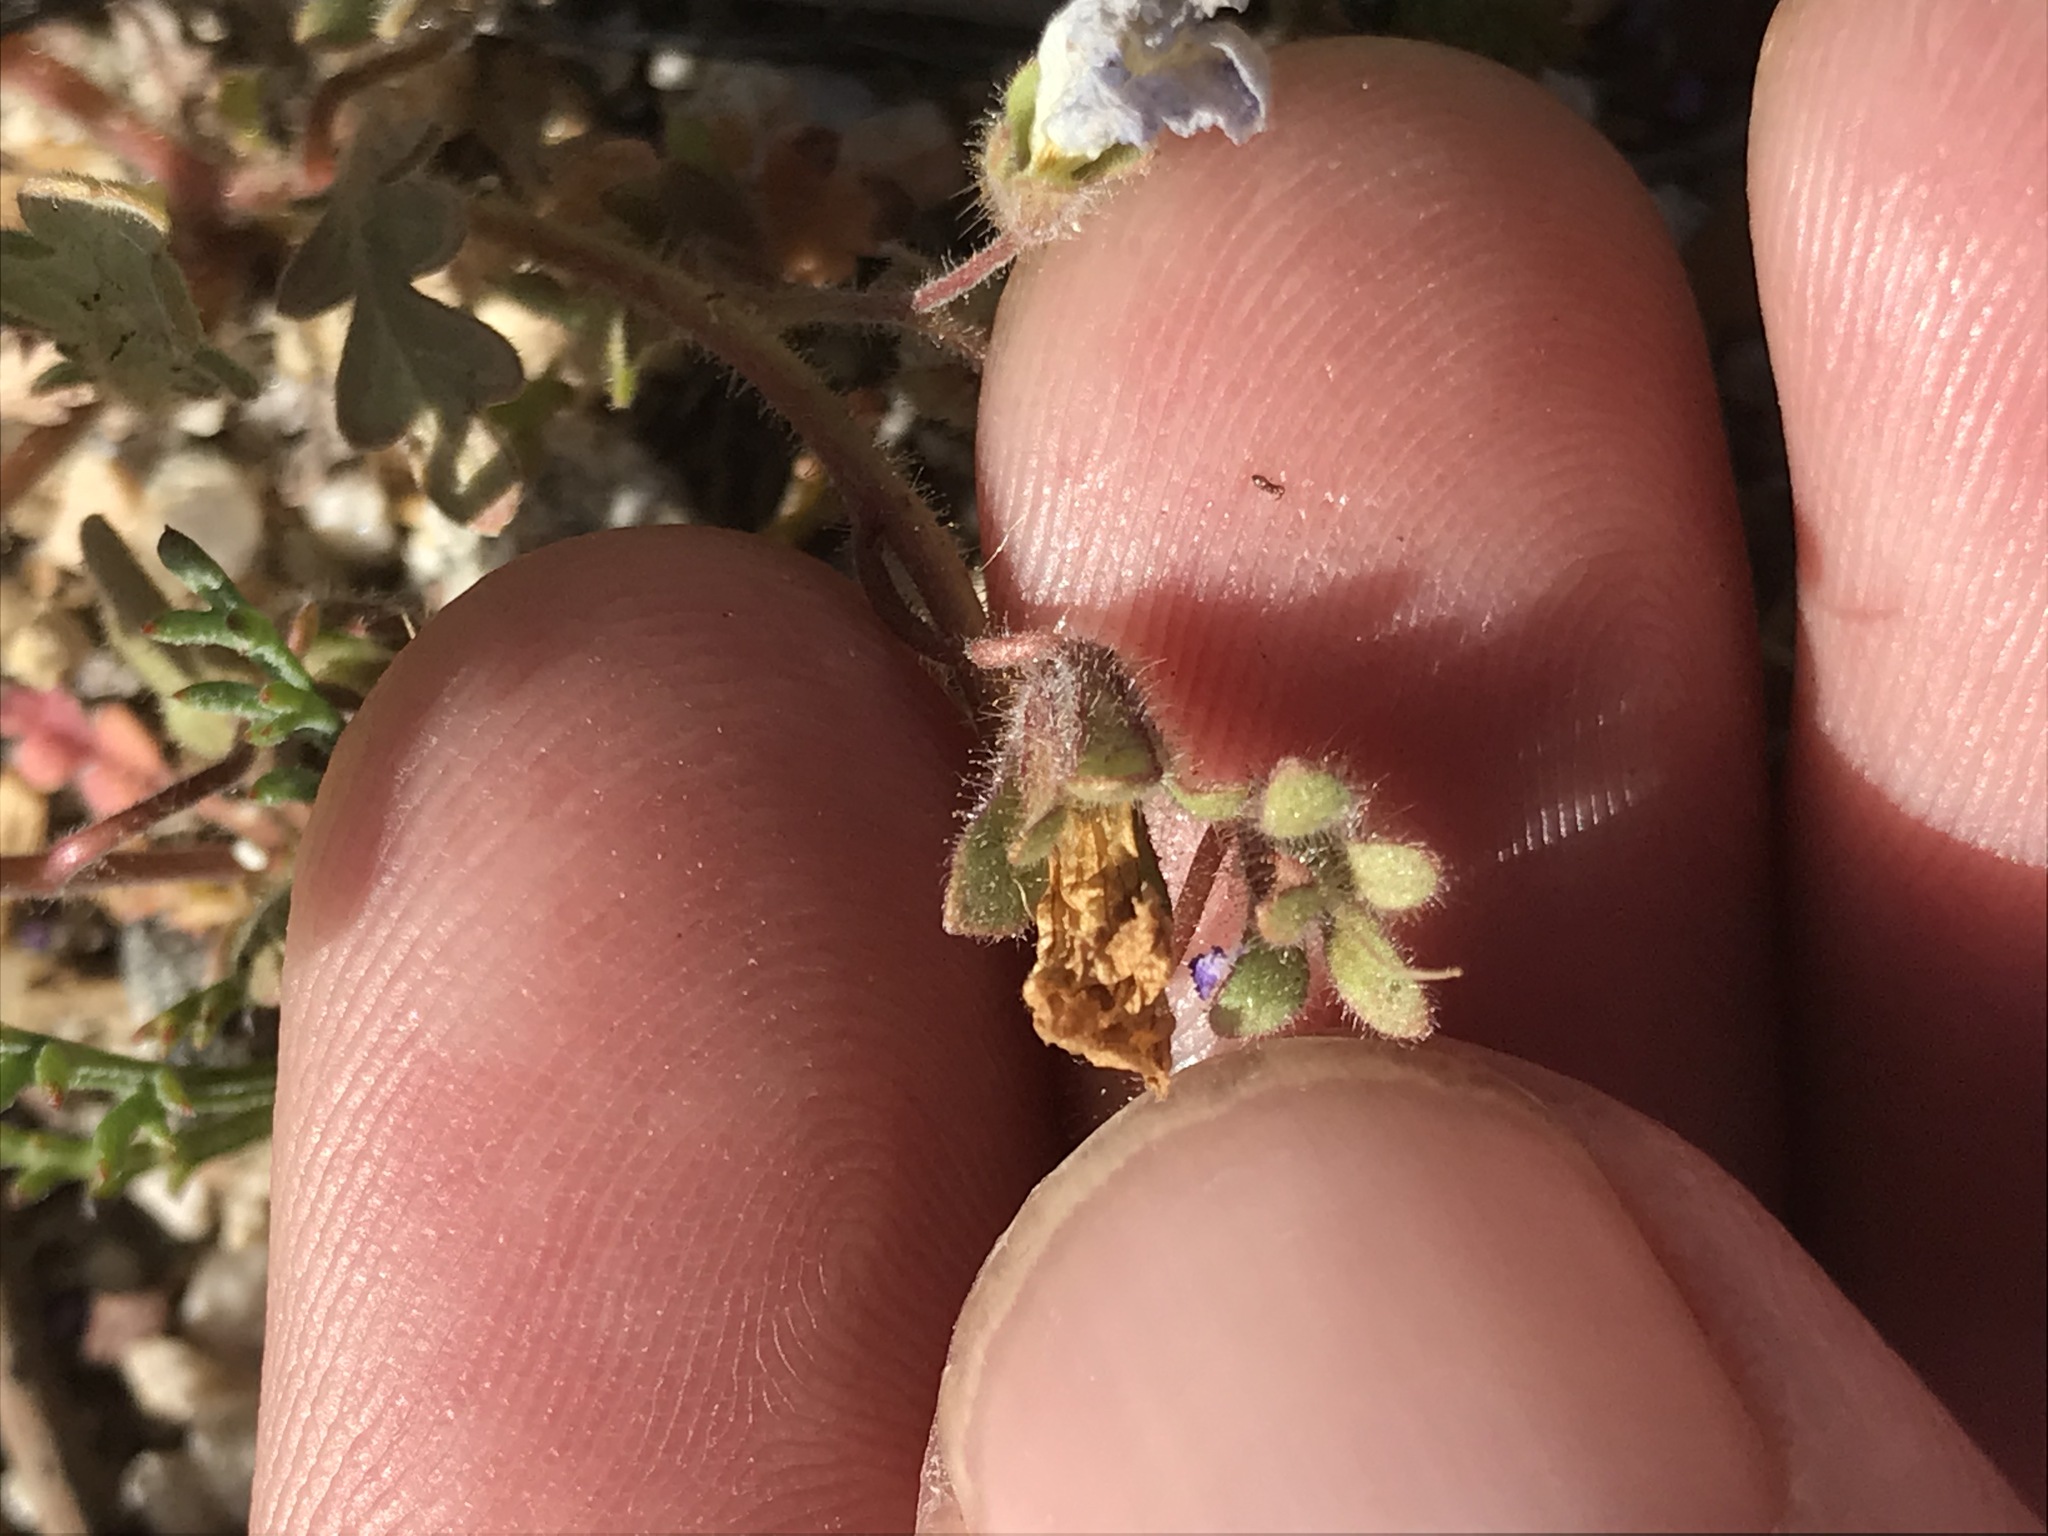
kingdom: Plantae
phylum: Tracheophyta
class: Magnoliopsida
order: Boraginales
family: Hydrophyllaceae
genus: Phacelia
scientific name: Phacelia douglasii
